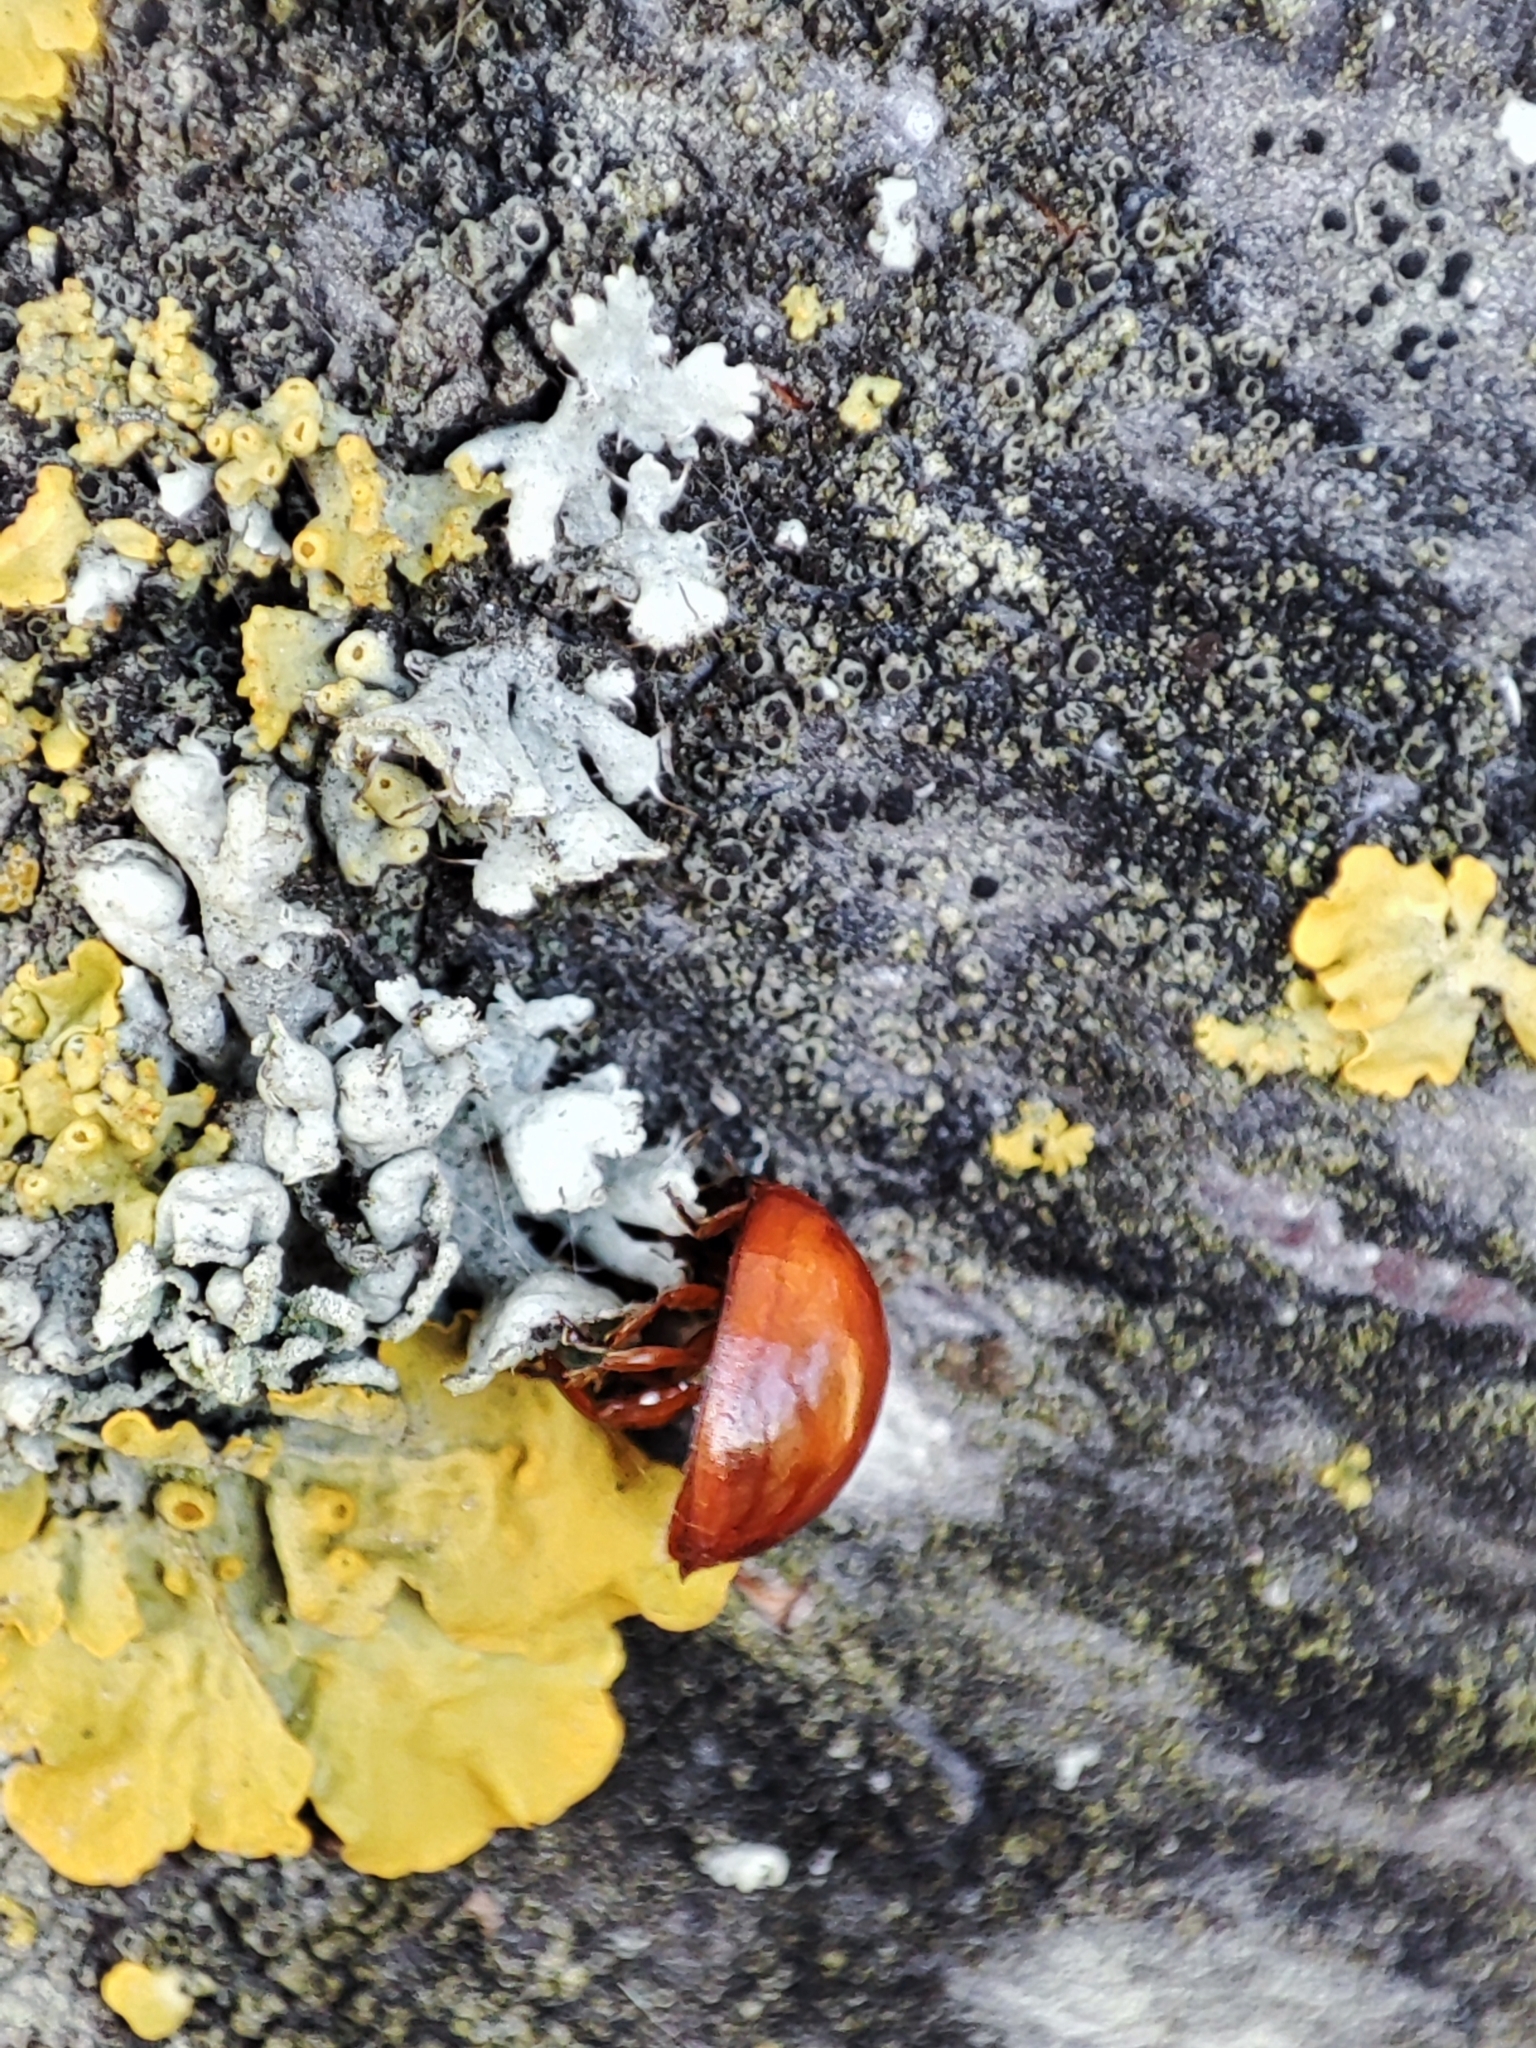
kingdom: Animalia
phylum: Arthropoda
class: Insecta
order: Coleoptera
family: Coccinellidae
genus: Brumus
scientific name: Brumus quadripustulatus
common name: Ladybird beetle
